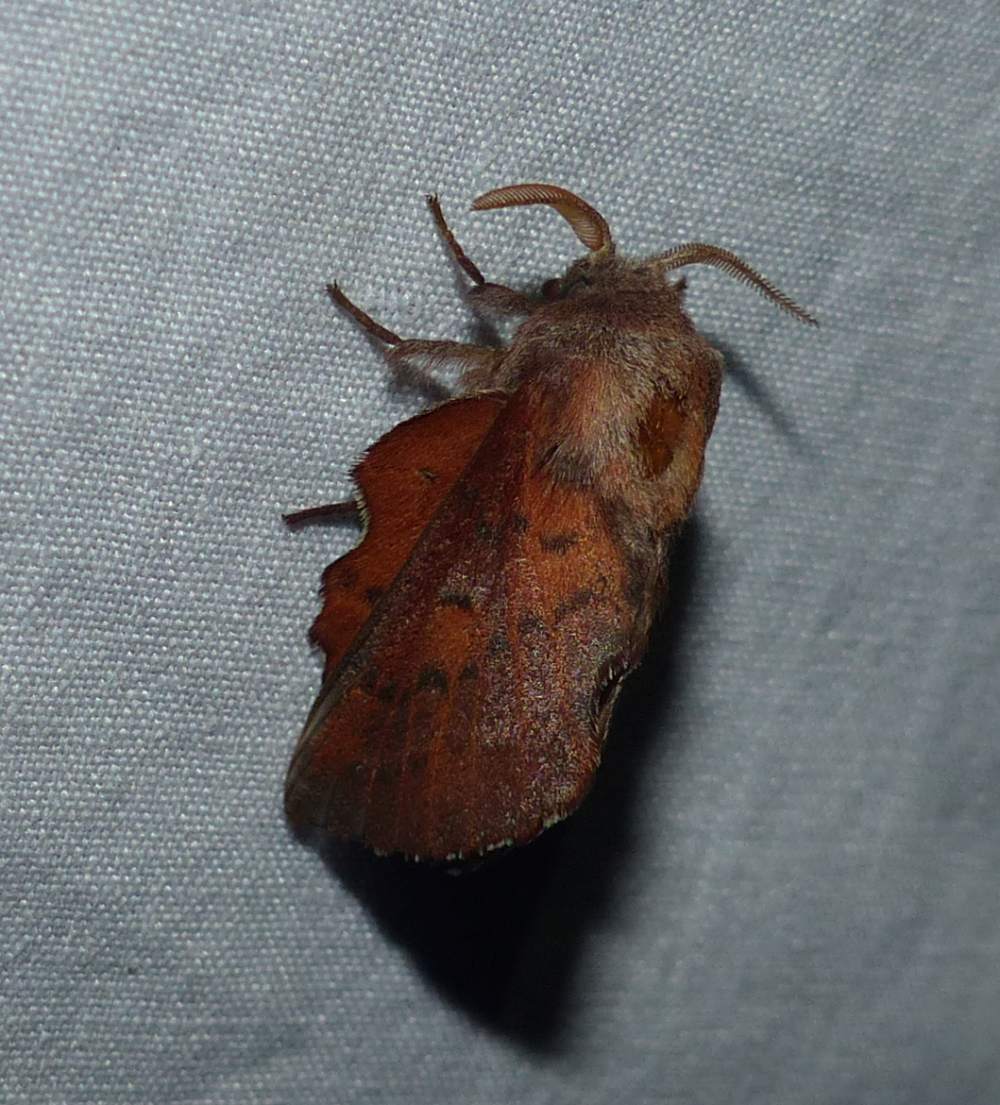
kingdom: Animalia
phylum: Arthropoda
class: Insecta
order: Lepidoptera
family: Lasiocampidae
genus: Phyllodesma
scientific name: Phyllodesma americana
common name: American lappet moth
